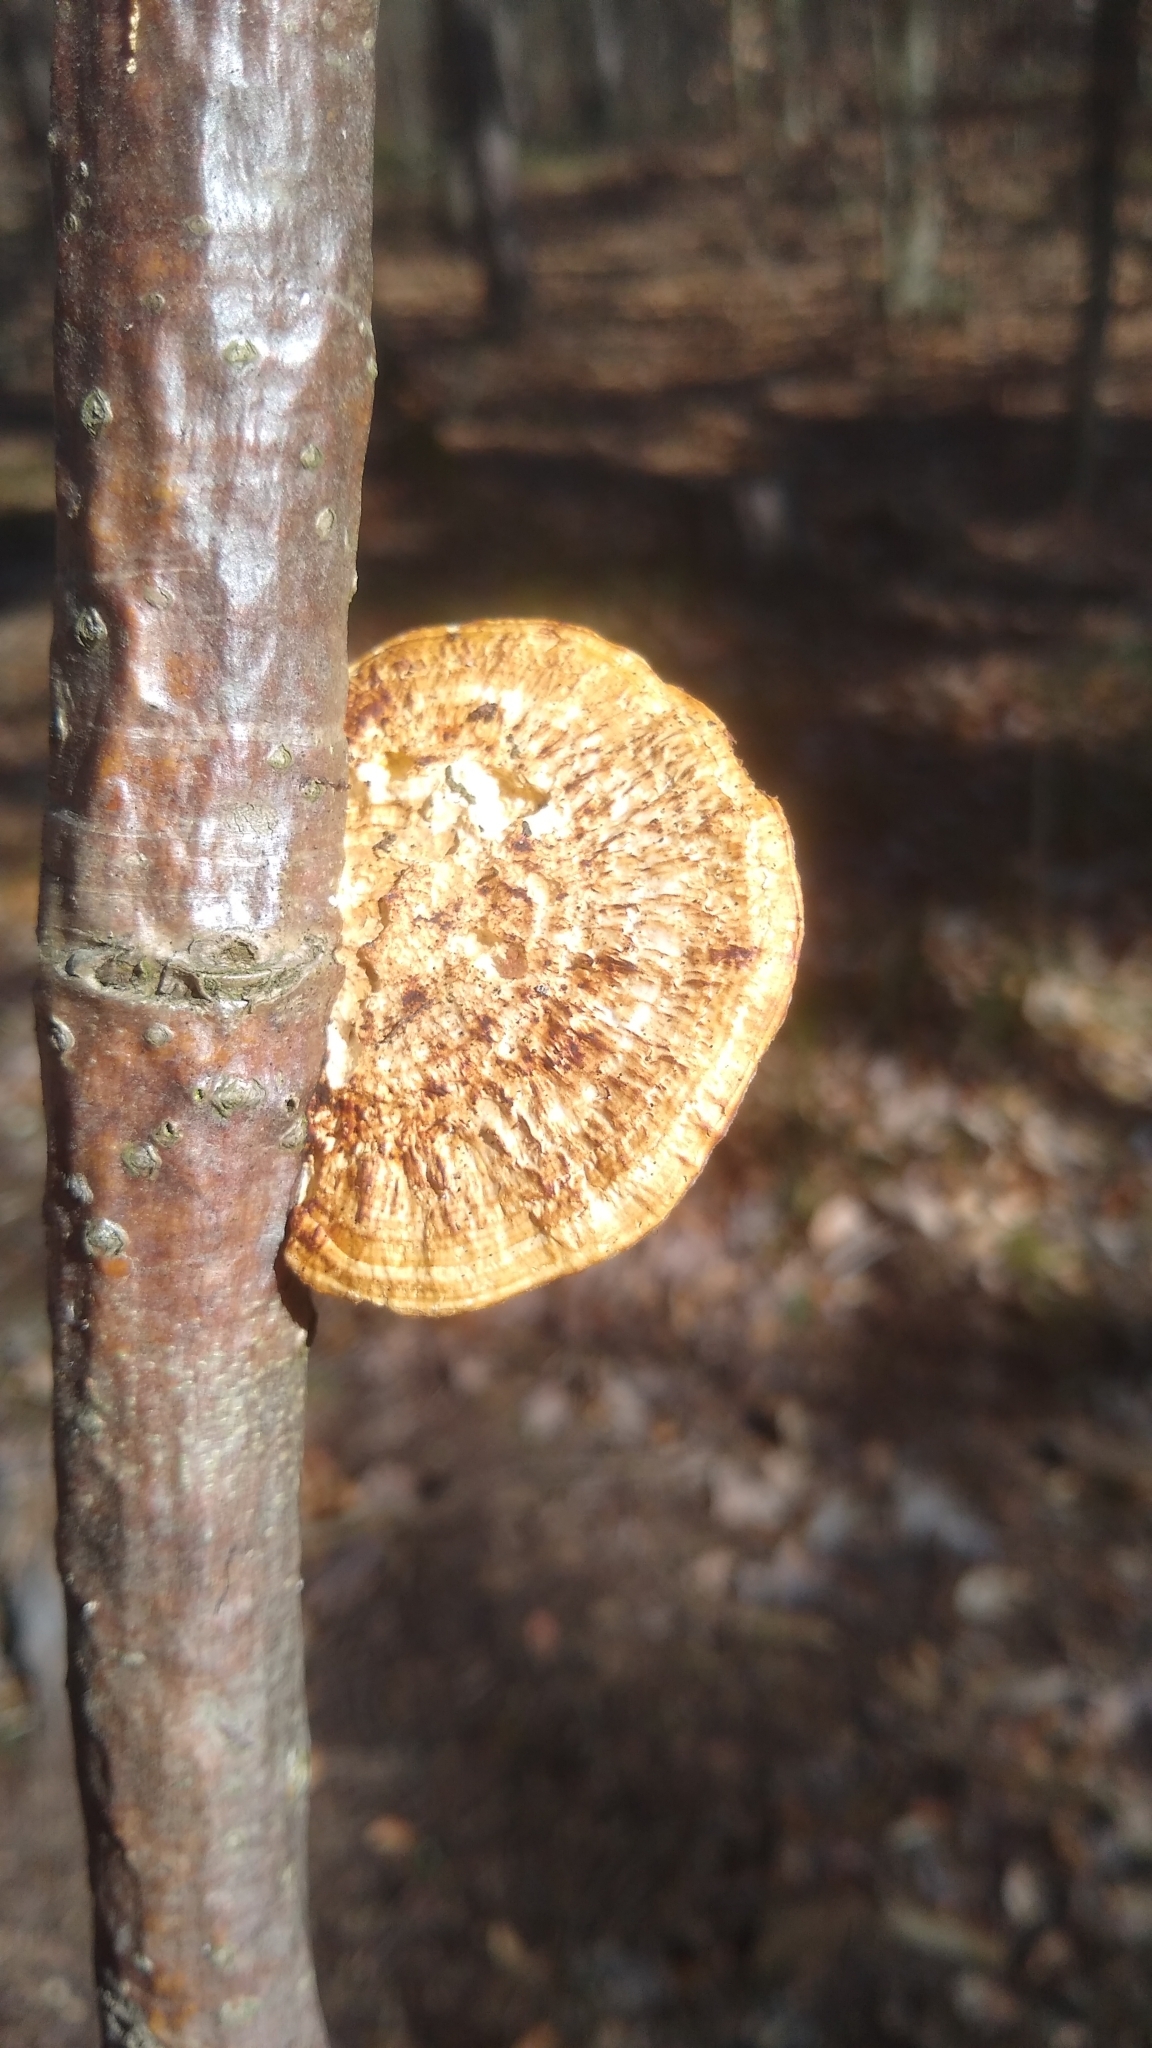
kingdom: Fungi
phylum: Basidiomycota
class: Agaricomycetes
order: Polyporales
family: Polyporaceae
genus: Daedaleopsis
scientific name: Daedaleopsis confragosa
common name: Blushing bracket
